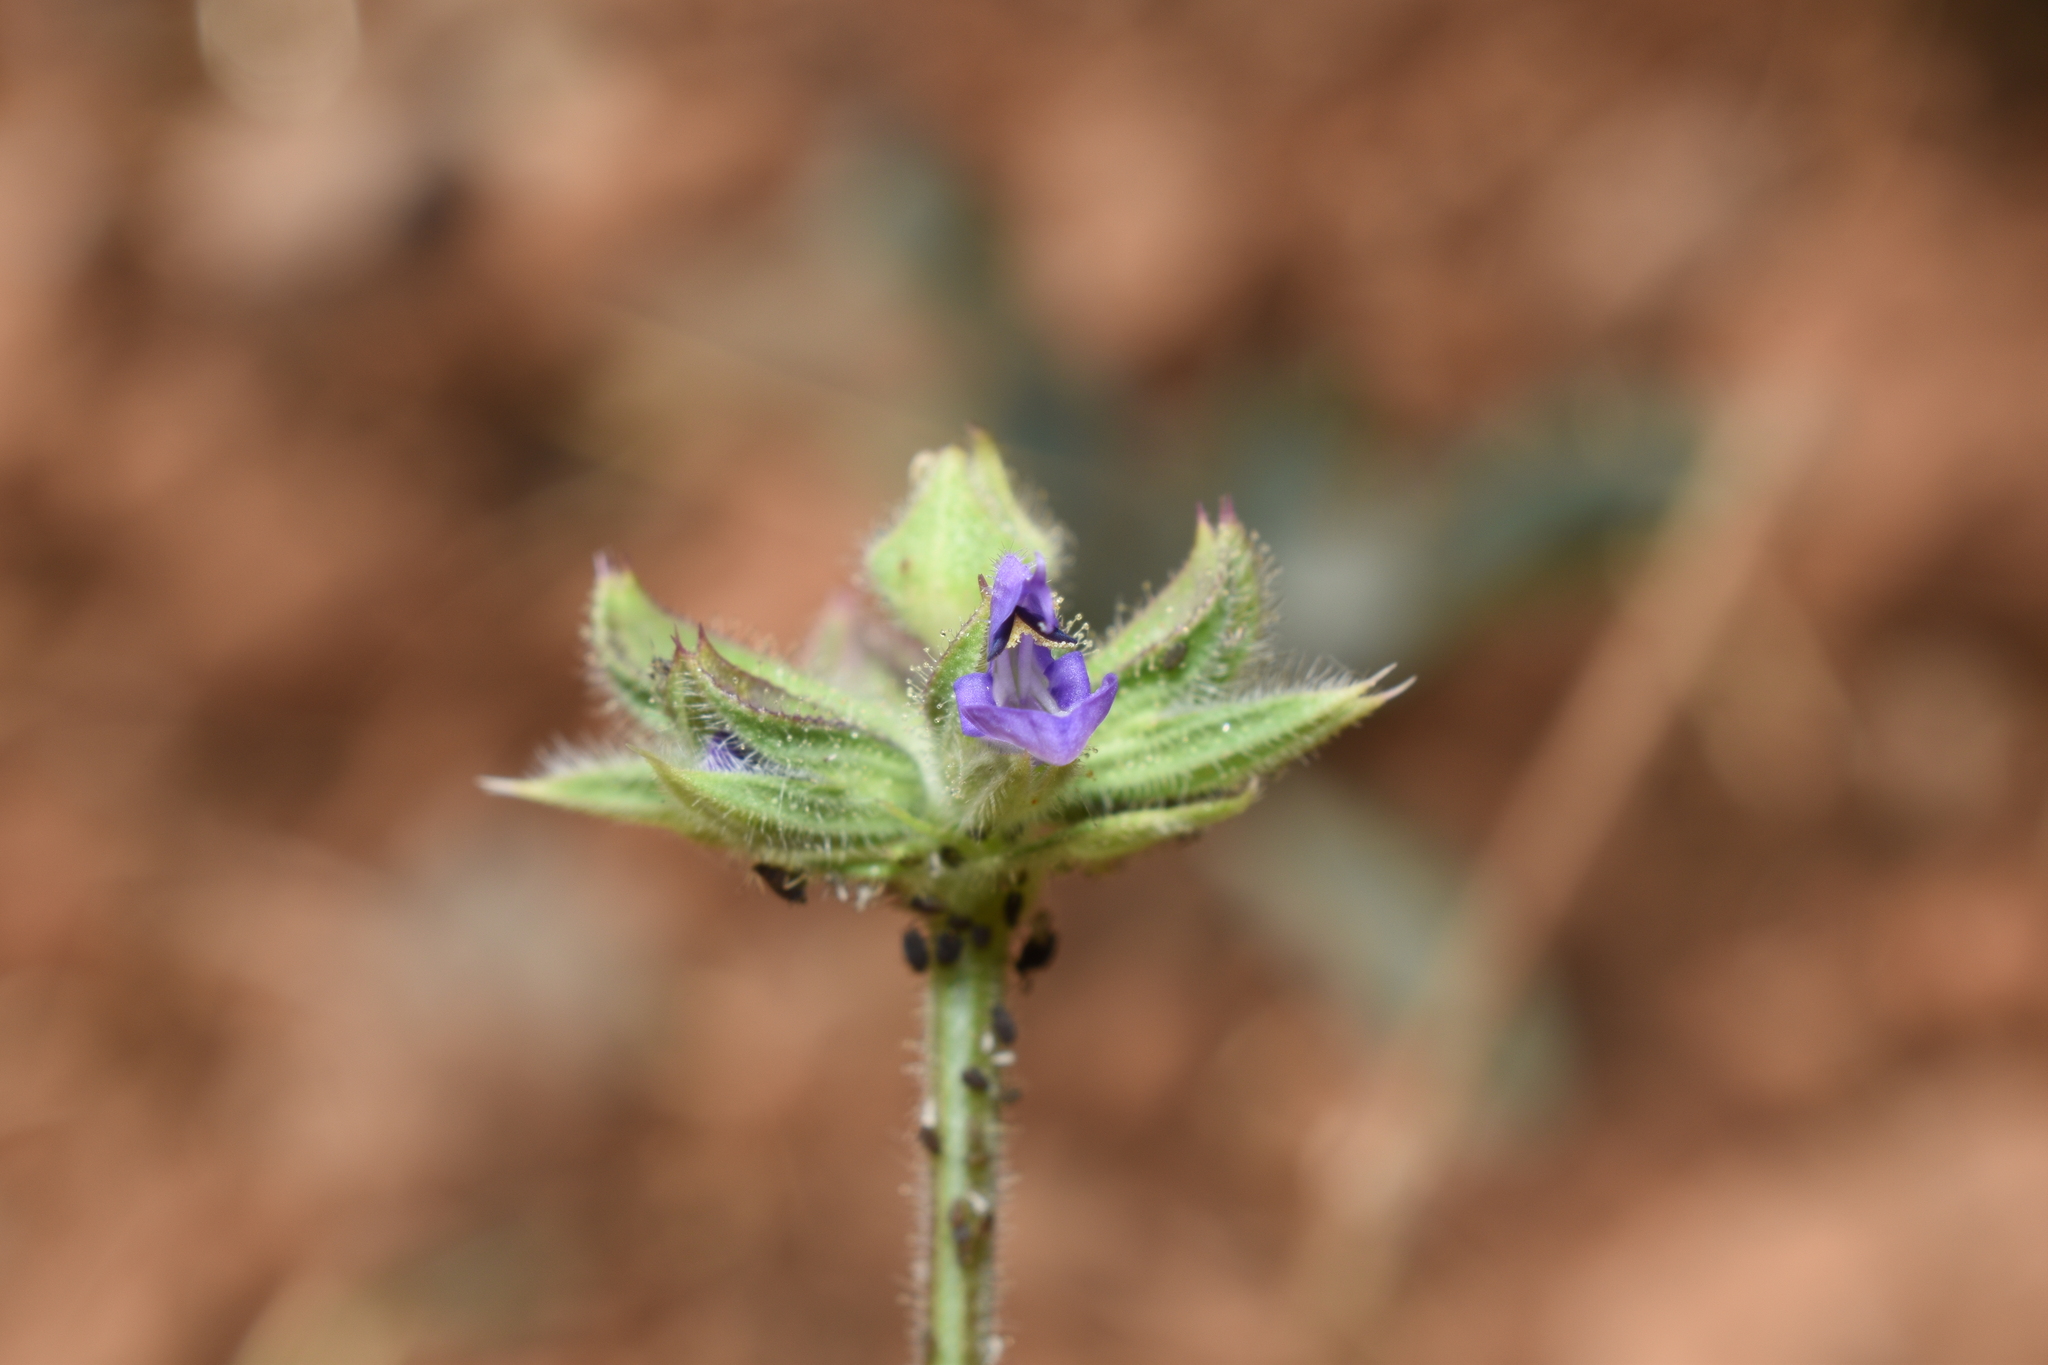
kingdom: Plantae
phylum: Tracheophyta
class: Magnoliopsida
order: Lamiales
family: Lamiaceae
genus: Salvia
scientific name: Salvia verbenaca
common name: Wild clary
